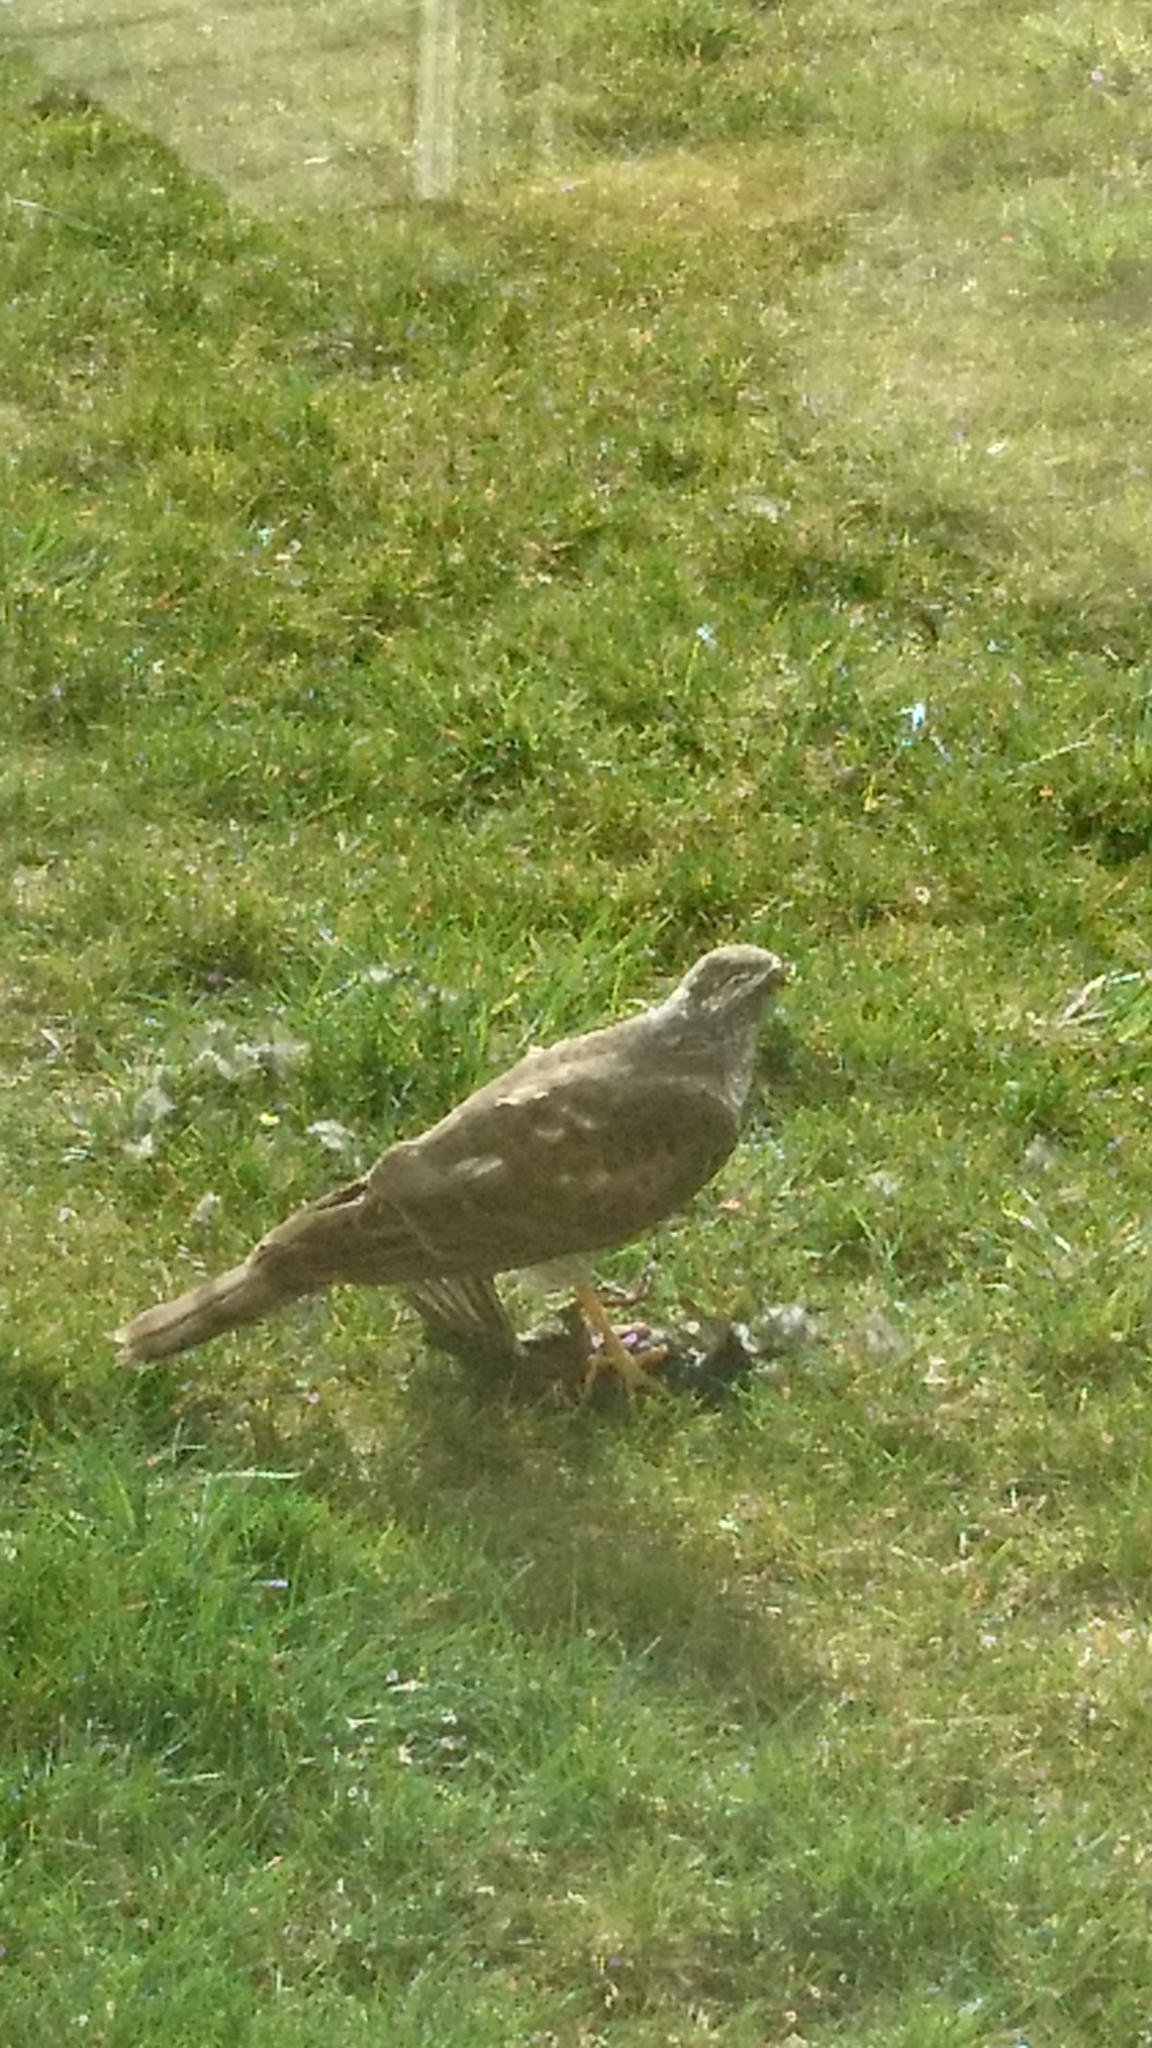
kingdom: Animalia
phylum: Chordata
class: Aves
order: Accipitriformes
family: Accipitridae
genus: Accipiter
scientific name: Accipiter nisus
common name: Eurasian sparrowhawk
